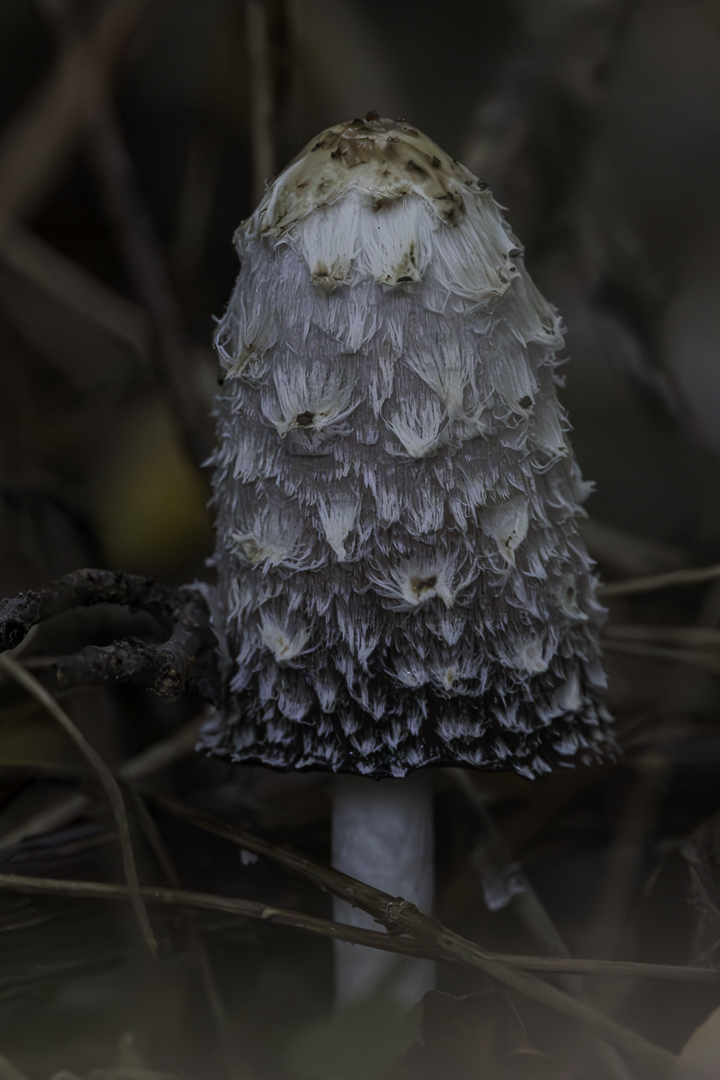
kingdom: Fungi
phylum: Basidiomycota
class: Agaricomycetes
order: Agaricales
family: Agaricaceae
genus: Coprinus
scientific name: Coprinus comatus
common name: Lawyer's wig
